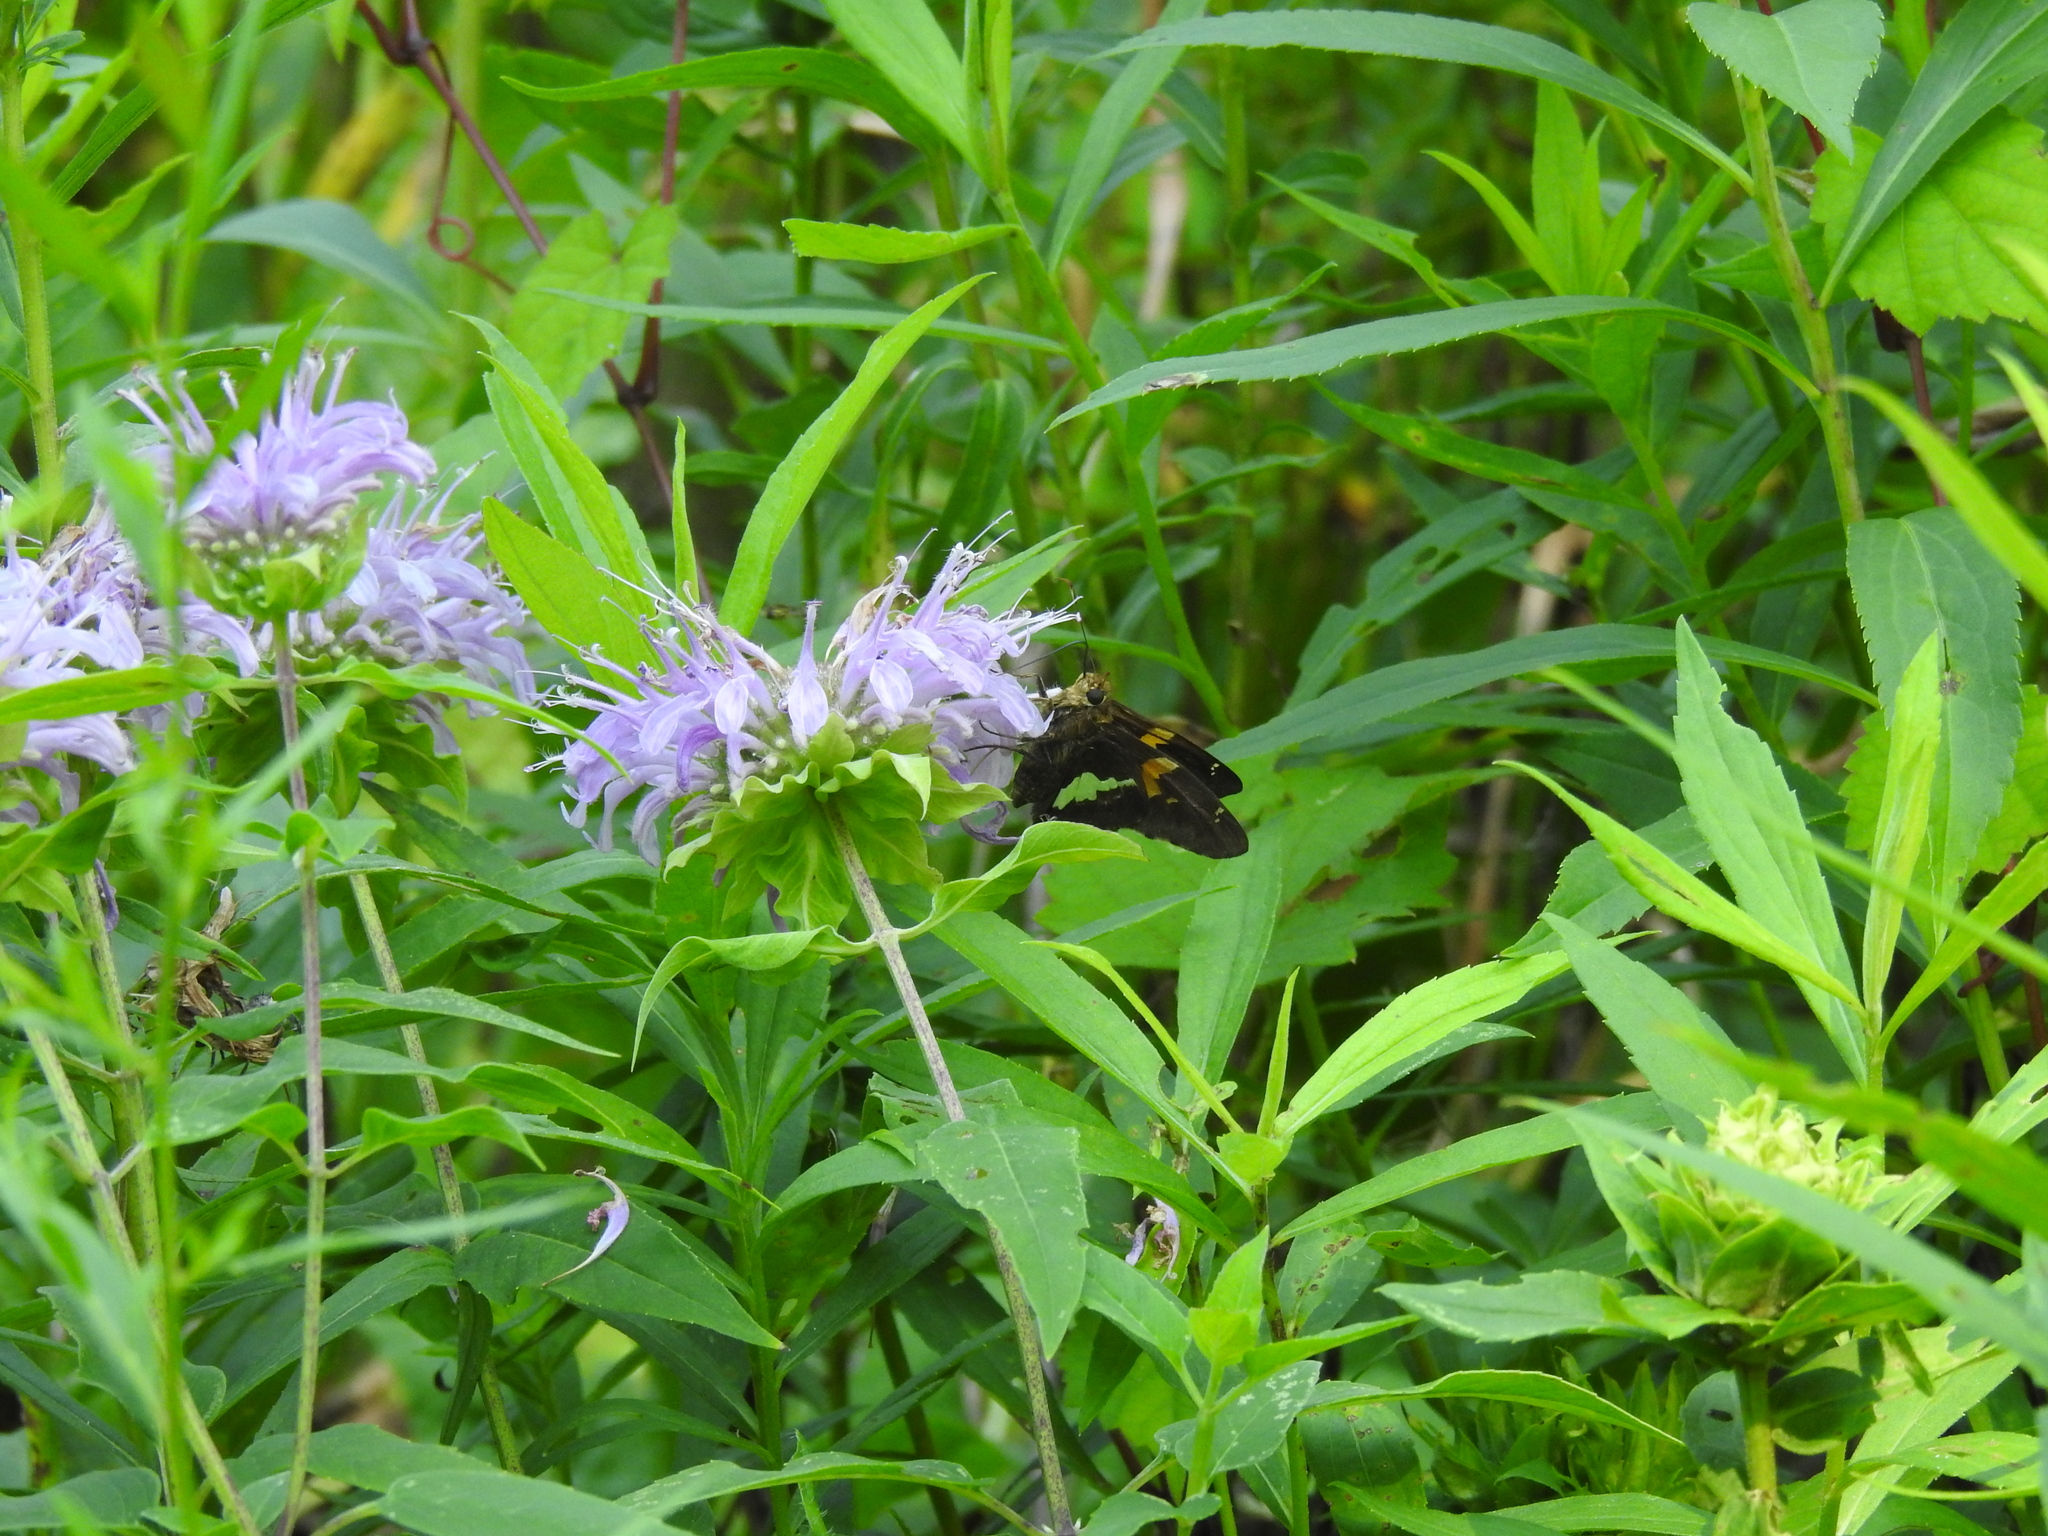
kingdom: Animalia
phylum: Arthropoda
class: Insecta
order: Lepidoptera
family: Hesperiidae
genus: Epargyreus
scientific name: Epargyreus clarus
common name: Silver-spotted skipper
